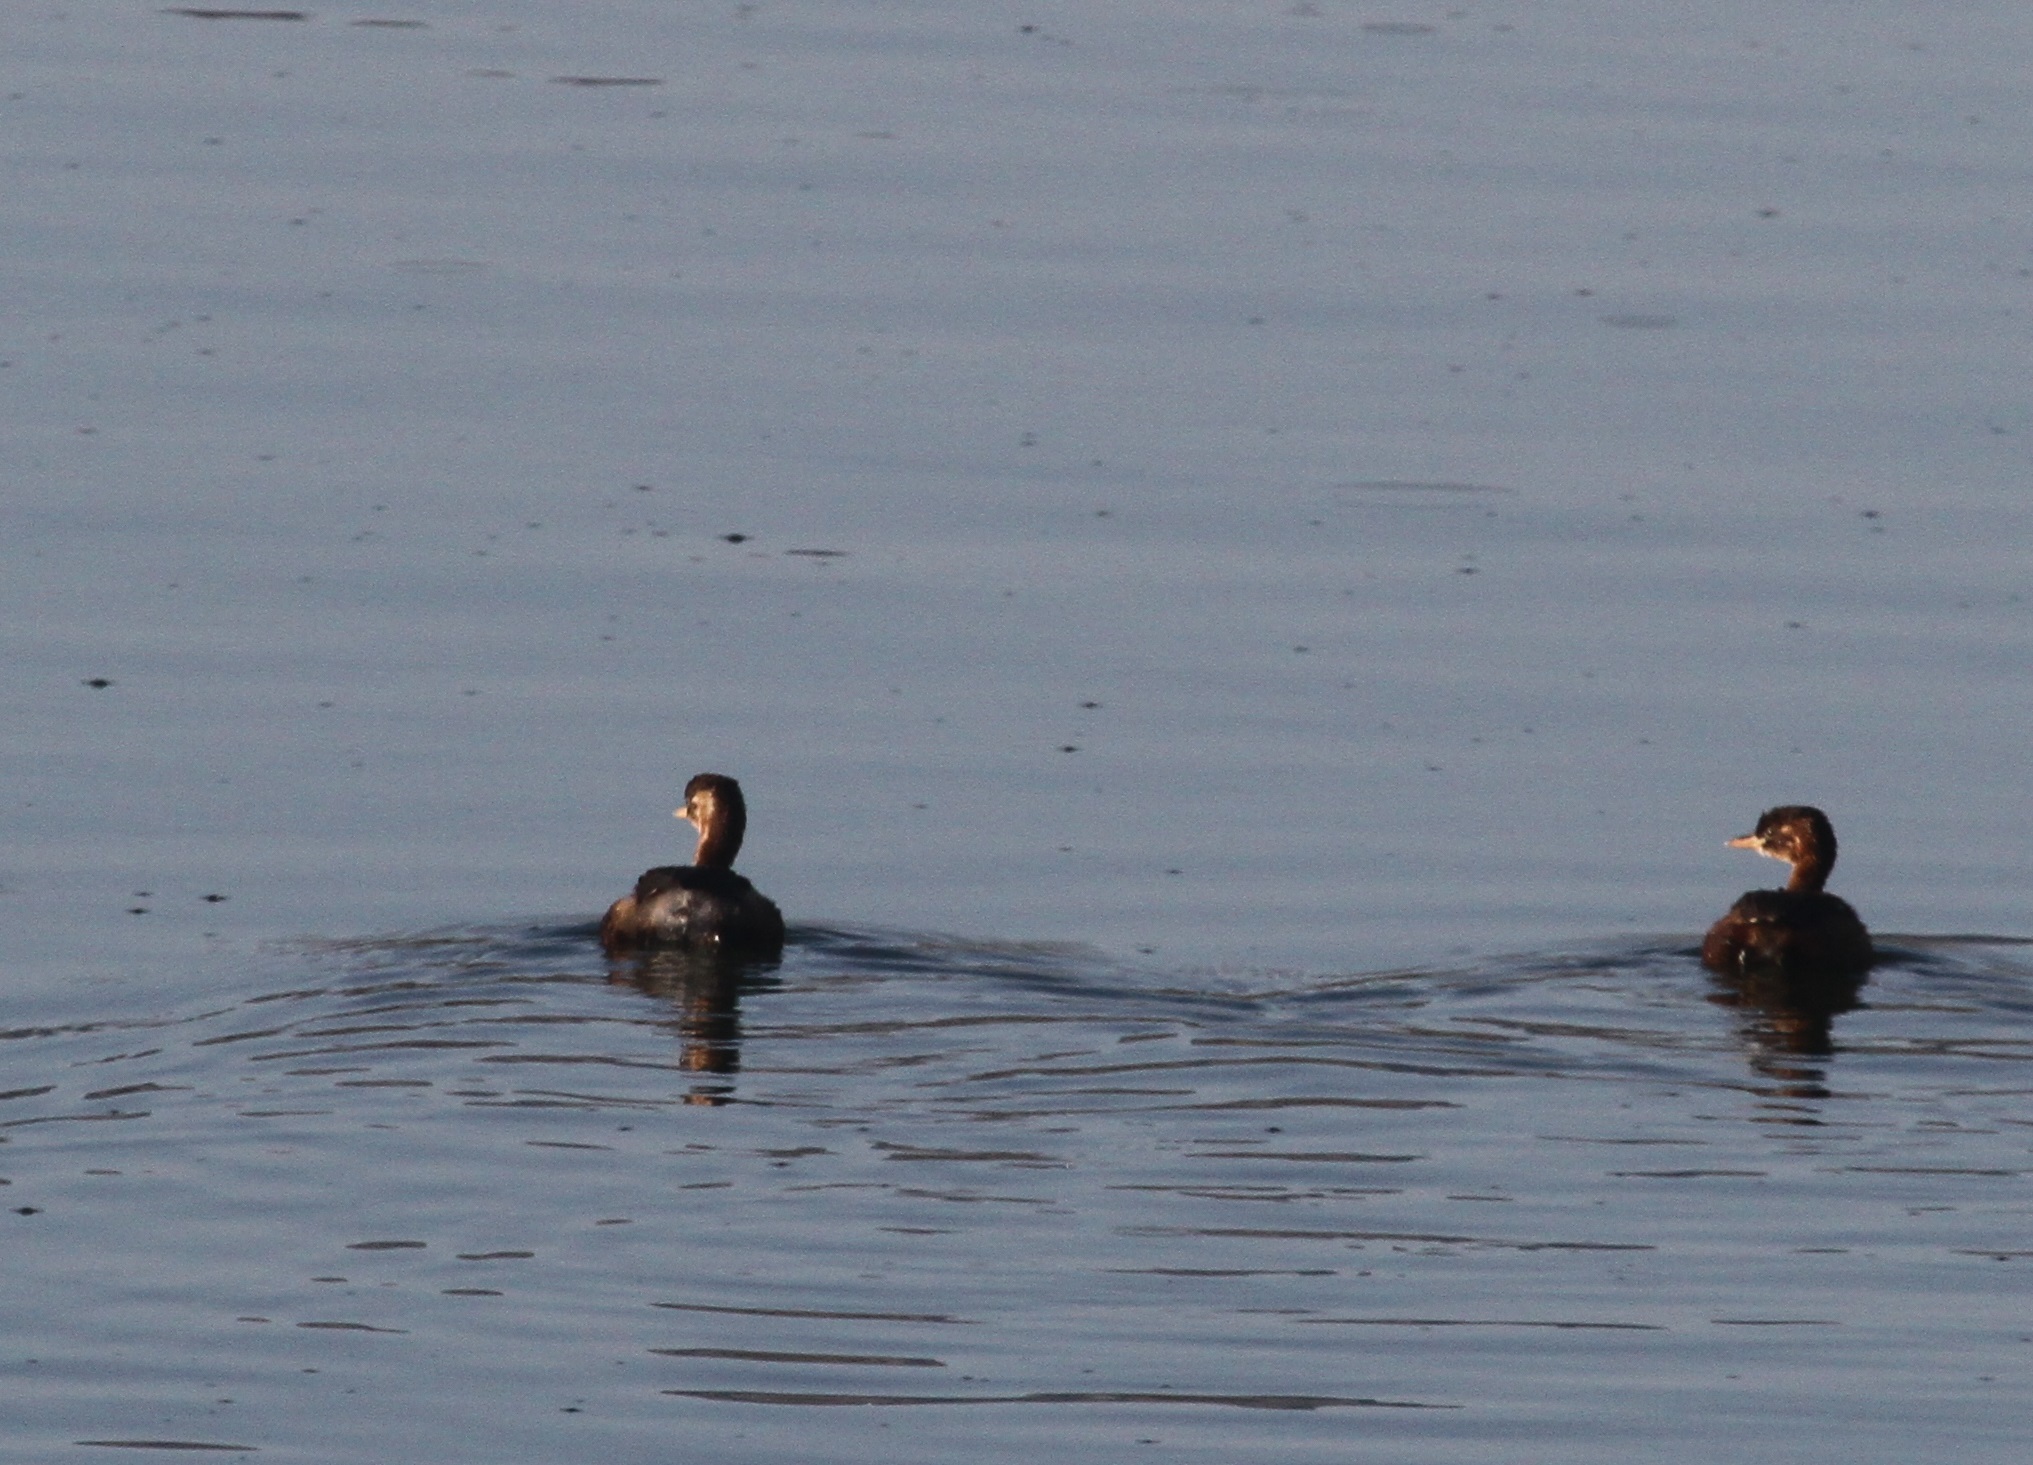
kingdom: Animalia
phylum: Chordata
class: Aves
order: Podicipediformes
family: Podicipedidae
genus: Tachybaptus
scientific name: Tachybaptus ruficollis
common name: Little grebe
